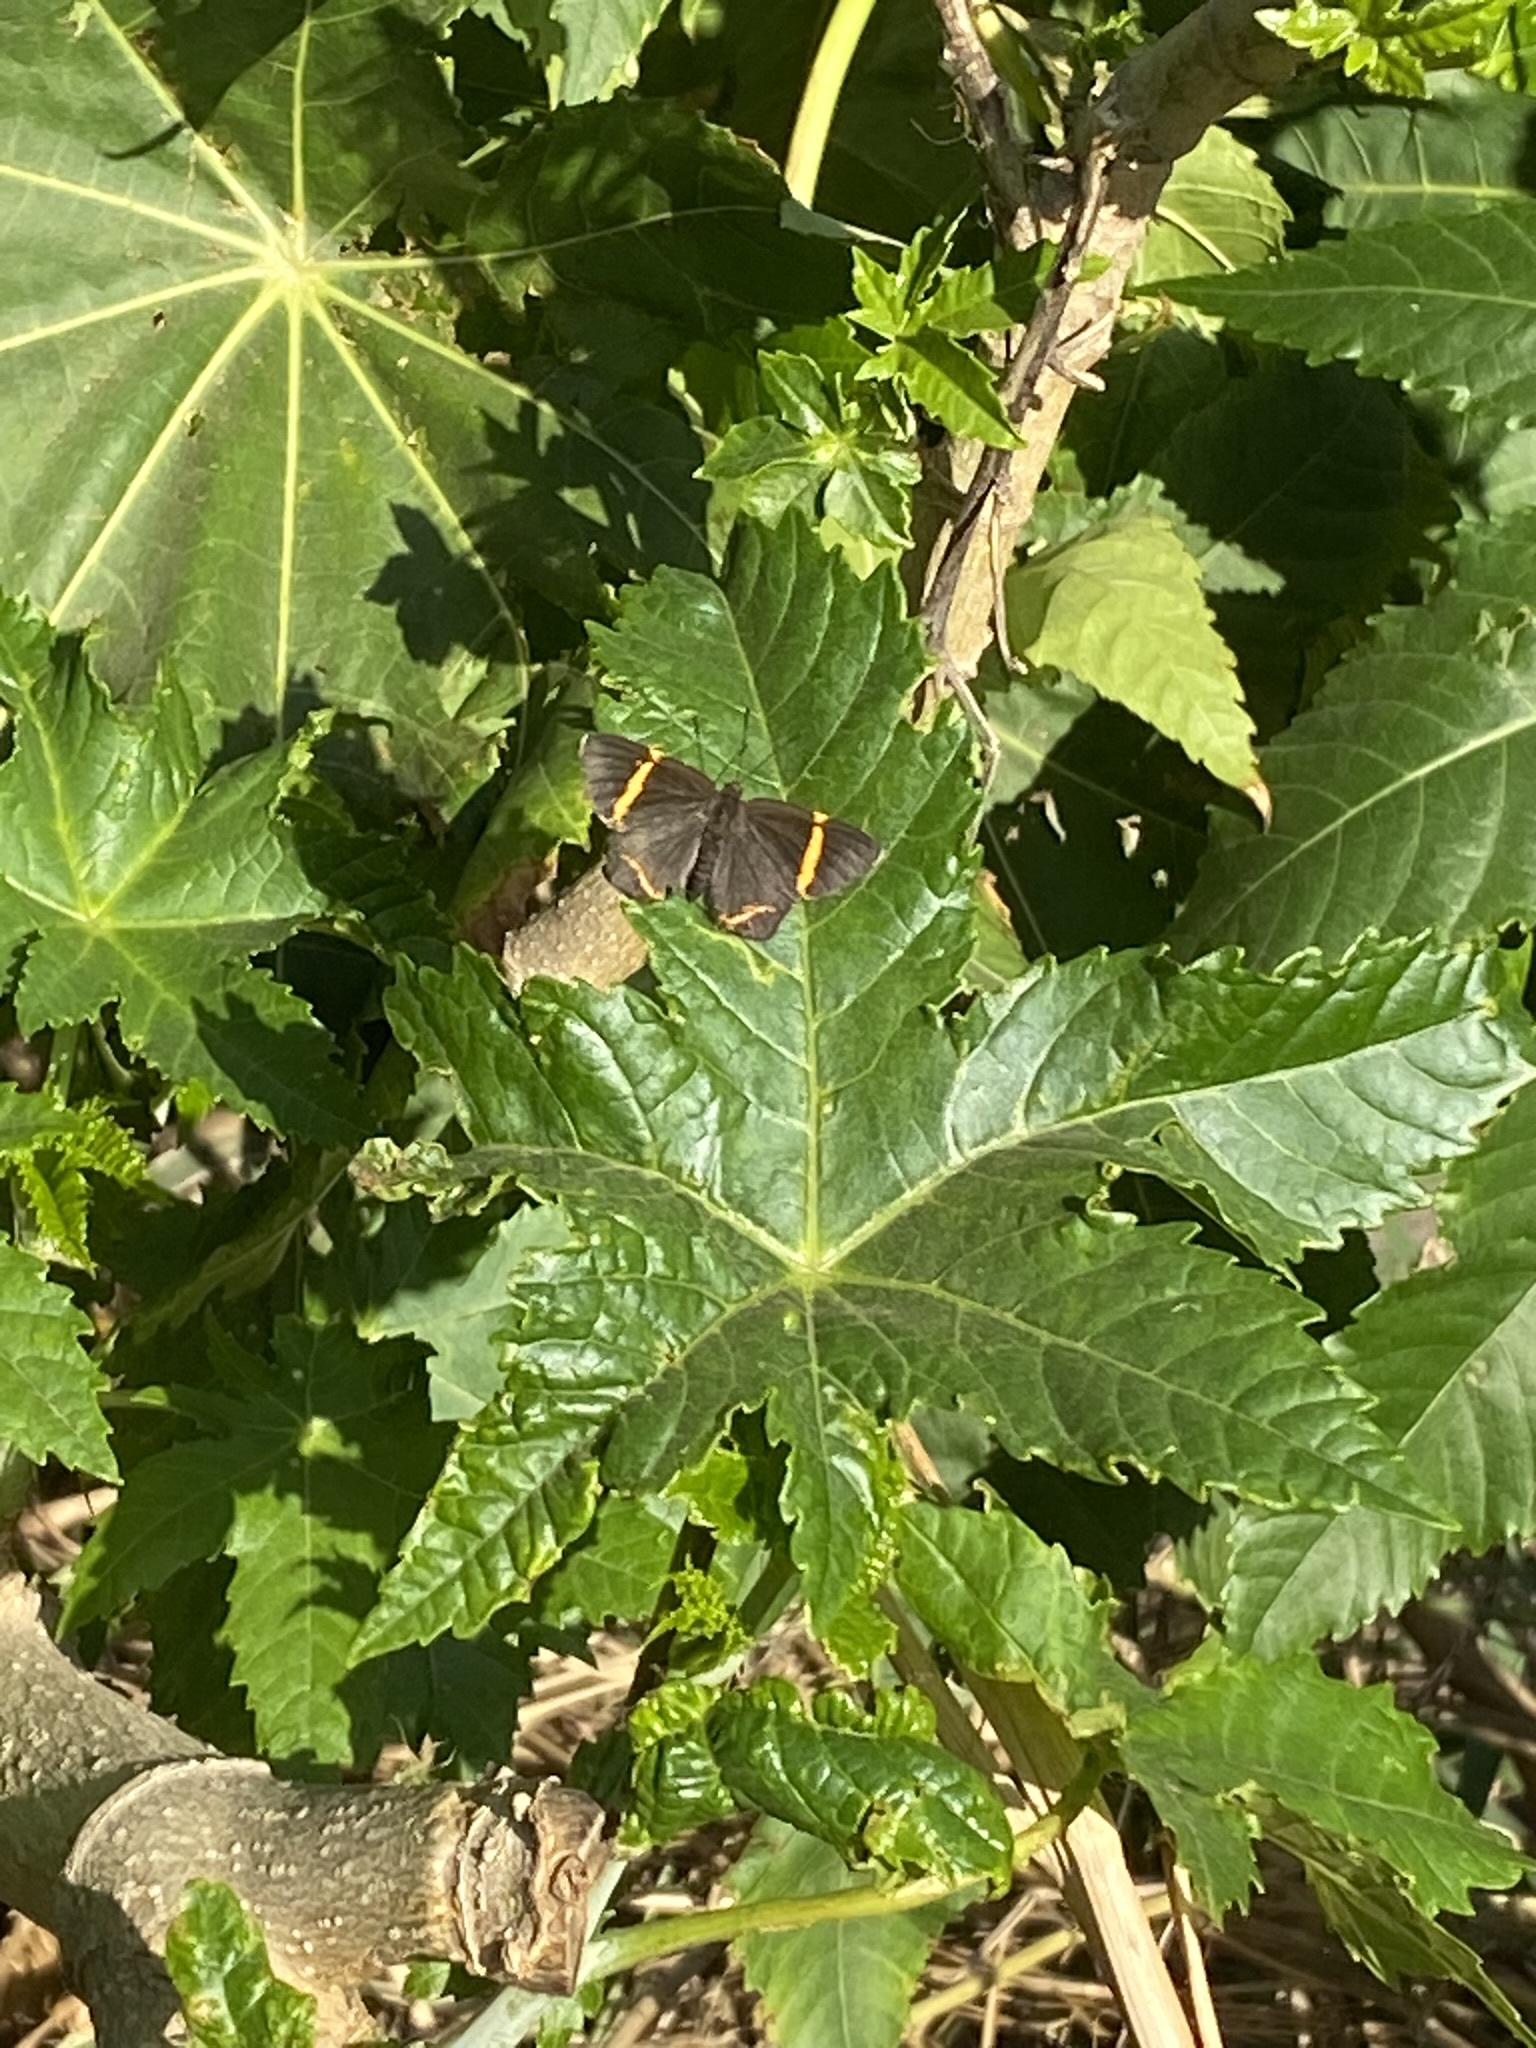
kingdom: Plantae
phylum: Tracheophyta
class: Magnoliopsida
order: Malpighiales
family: Euphorbiaceae
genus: Ricinus
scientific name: Ricinus communis
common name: Castor-oil-plant
